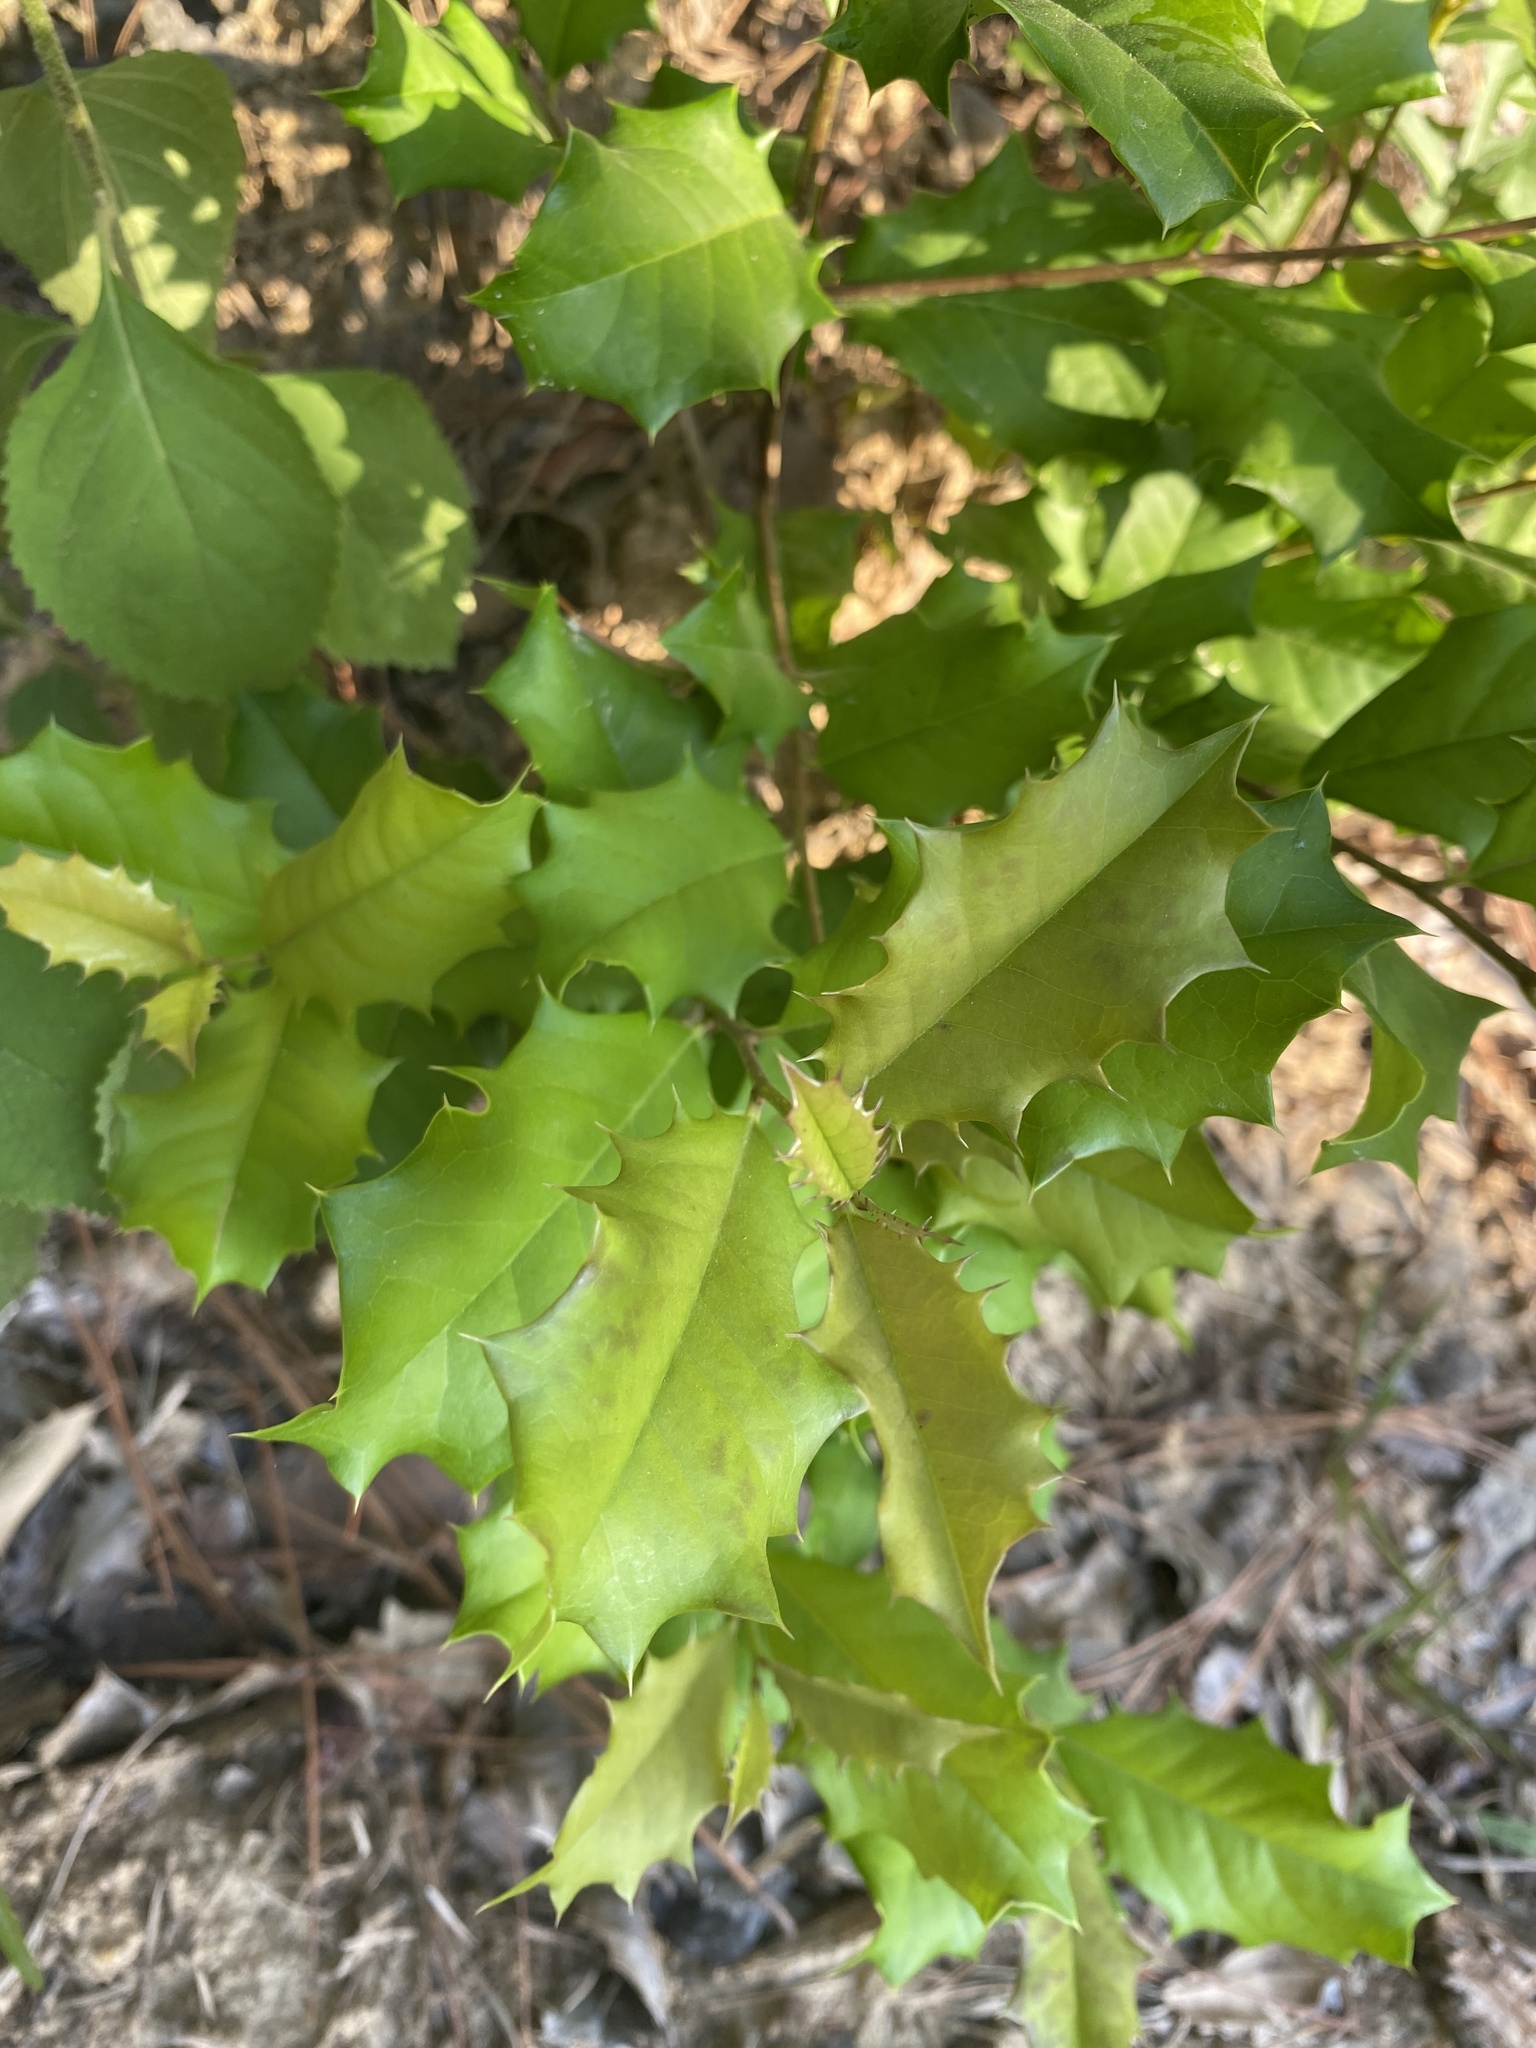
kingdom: Plantae
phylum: Tracheophyta
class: Magnoliopsida
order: Aquifoliales
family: Aquifoliaceae
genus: Ilex
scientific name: Ilex opaca
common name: American holly
